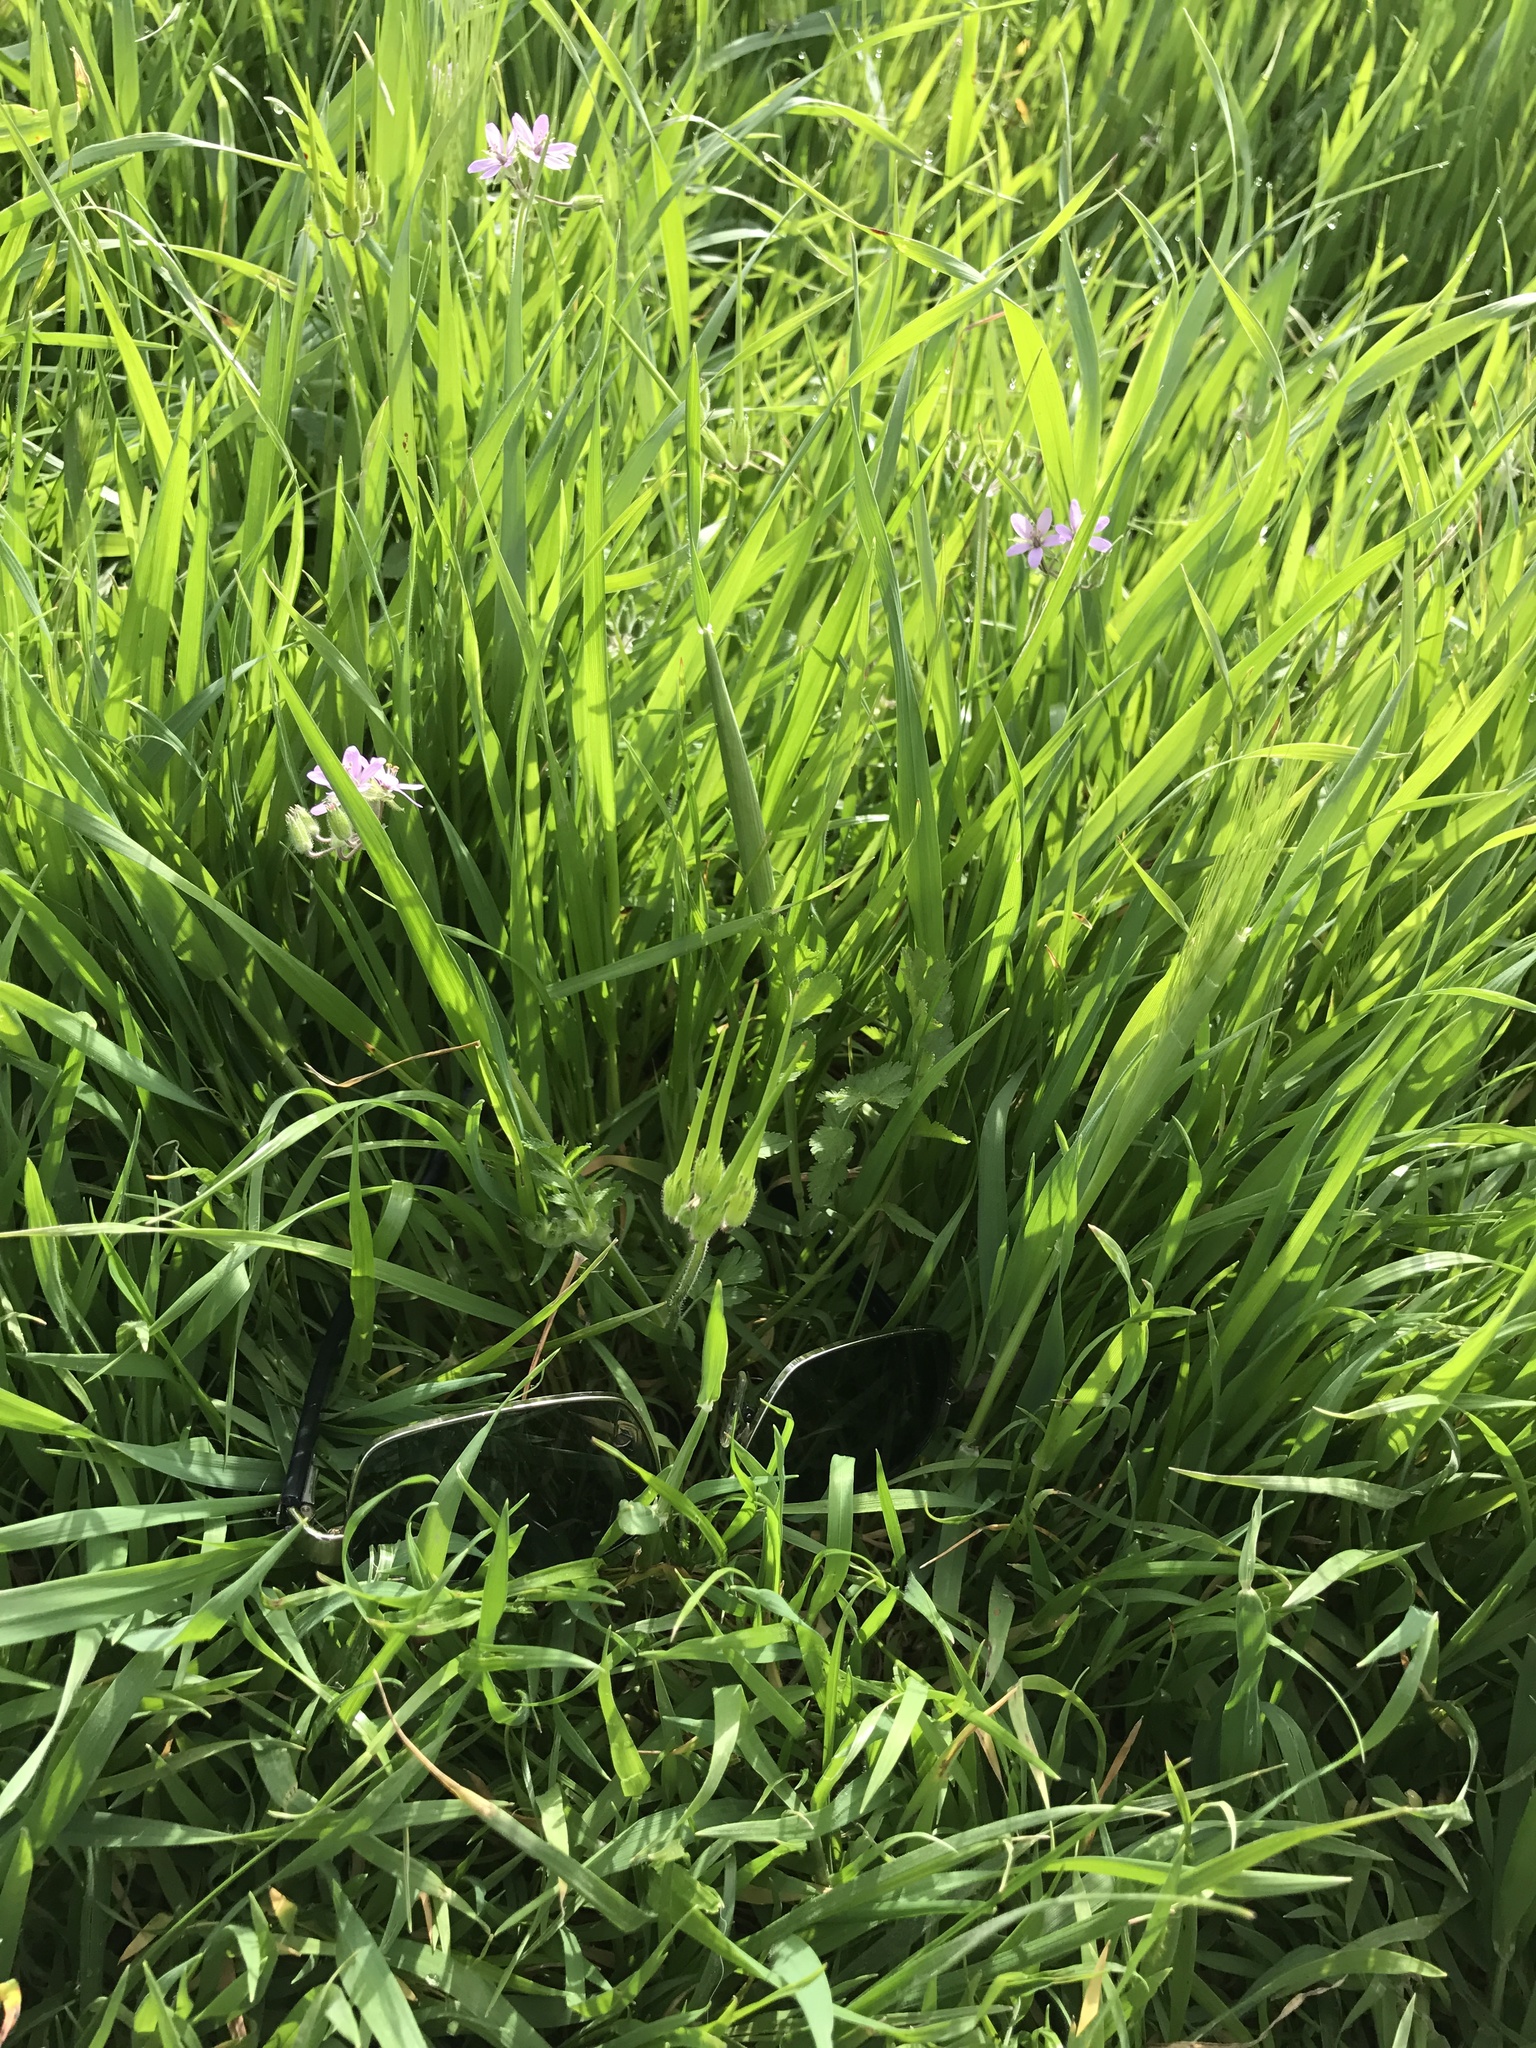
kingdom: Plantae
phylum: Tracheophyta
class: Magnoliopsida
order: Geraniales
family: Geraniaceae
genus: Erodium
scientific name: Erodium moschatum
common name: Musk stork's-bill
